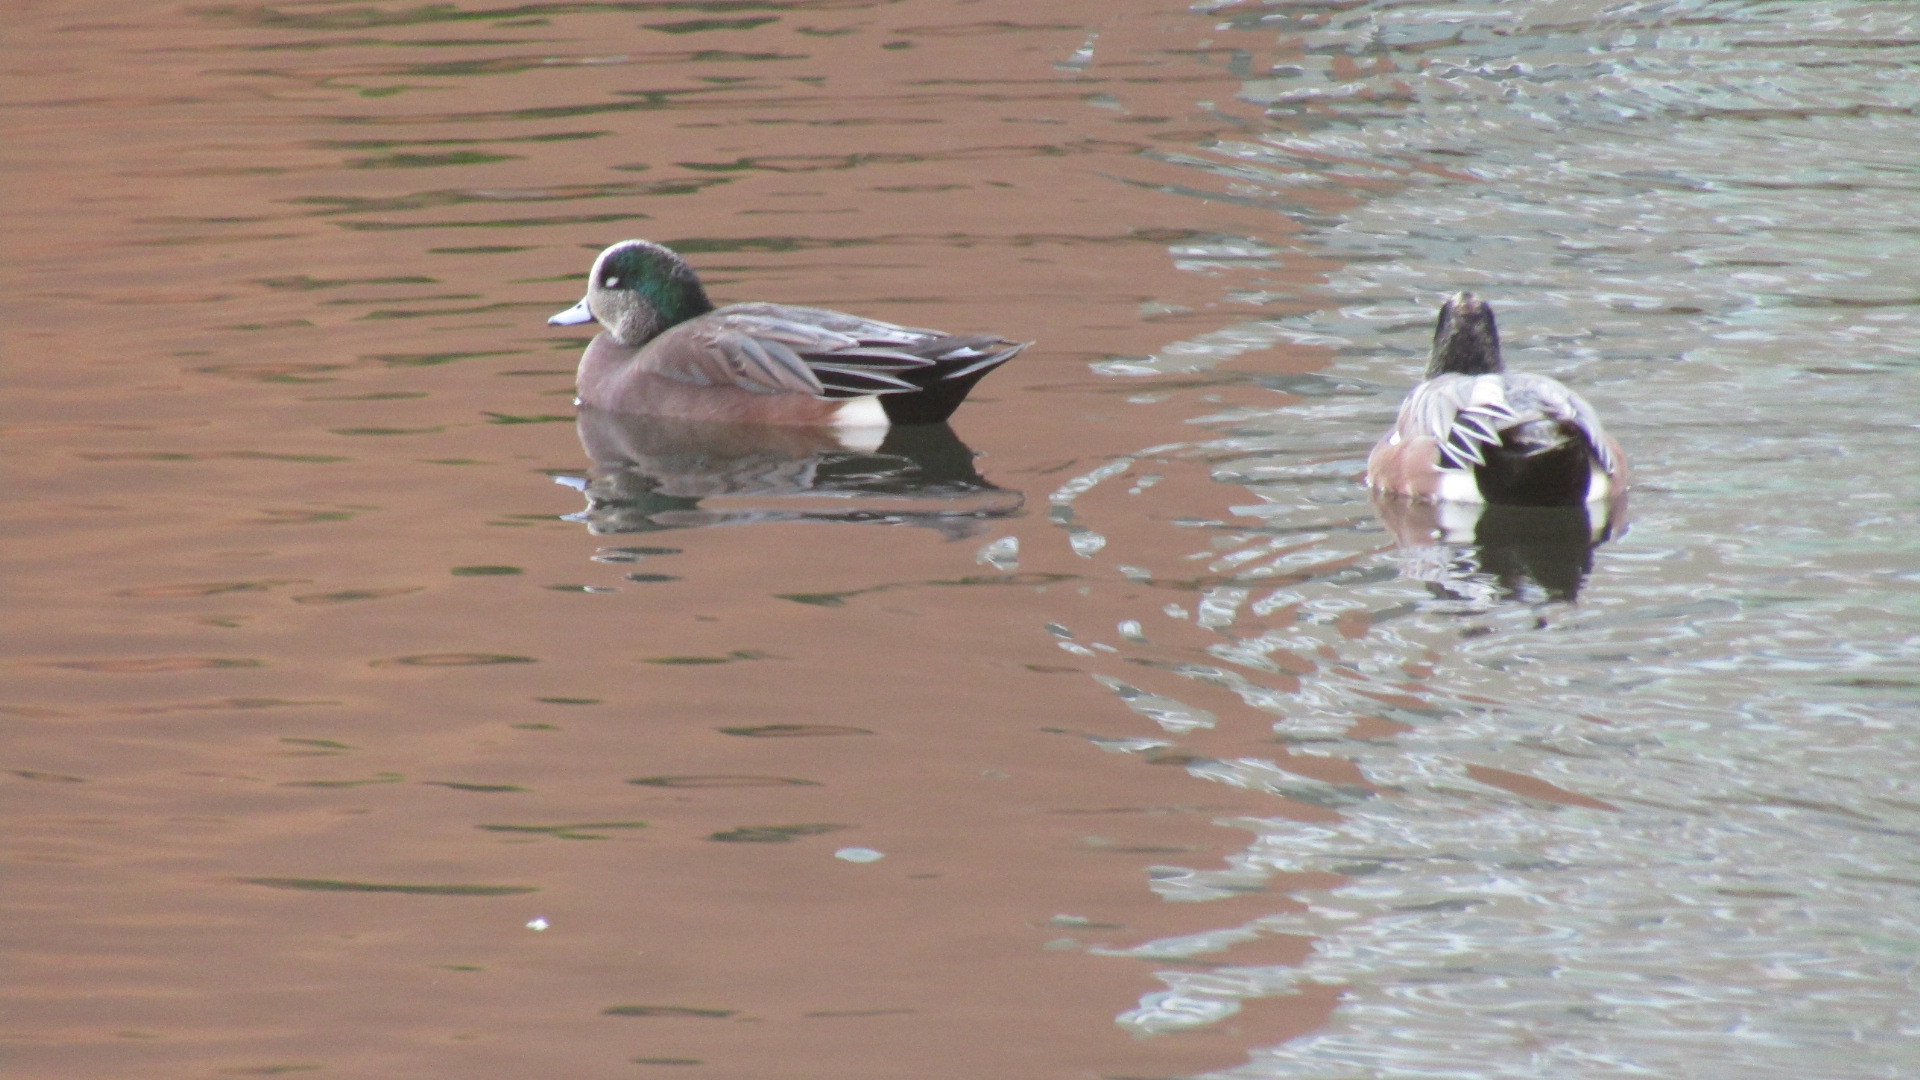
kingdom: Animalia
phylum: Chordata
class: Aves
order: Anseriformes
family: Anatidae
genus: Mareca
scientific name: Mareca americana
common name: American wigeon
